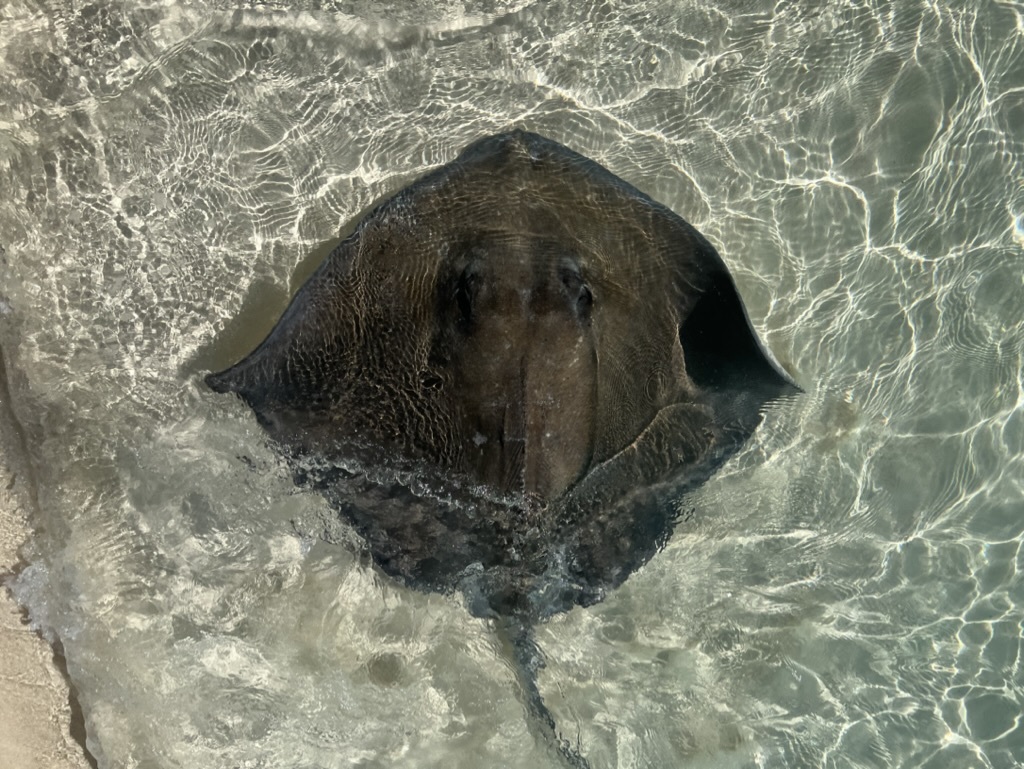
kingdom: Animalia
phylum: Chordata
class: Elasmobranchii
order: Myliobatiformes
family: Dasyatidae
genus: Hypanus
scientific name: Hypanus americanus
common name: Southern stingray
